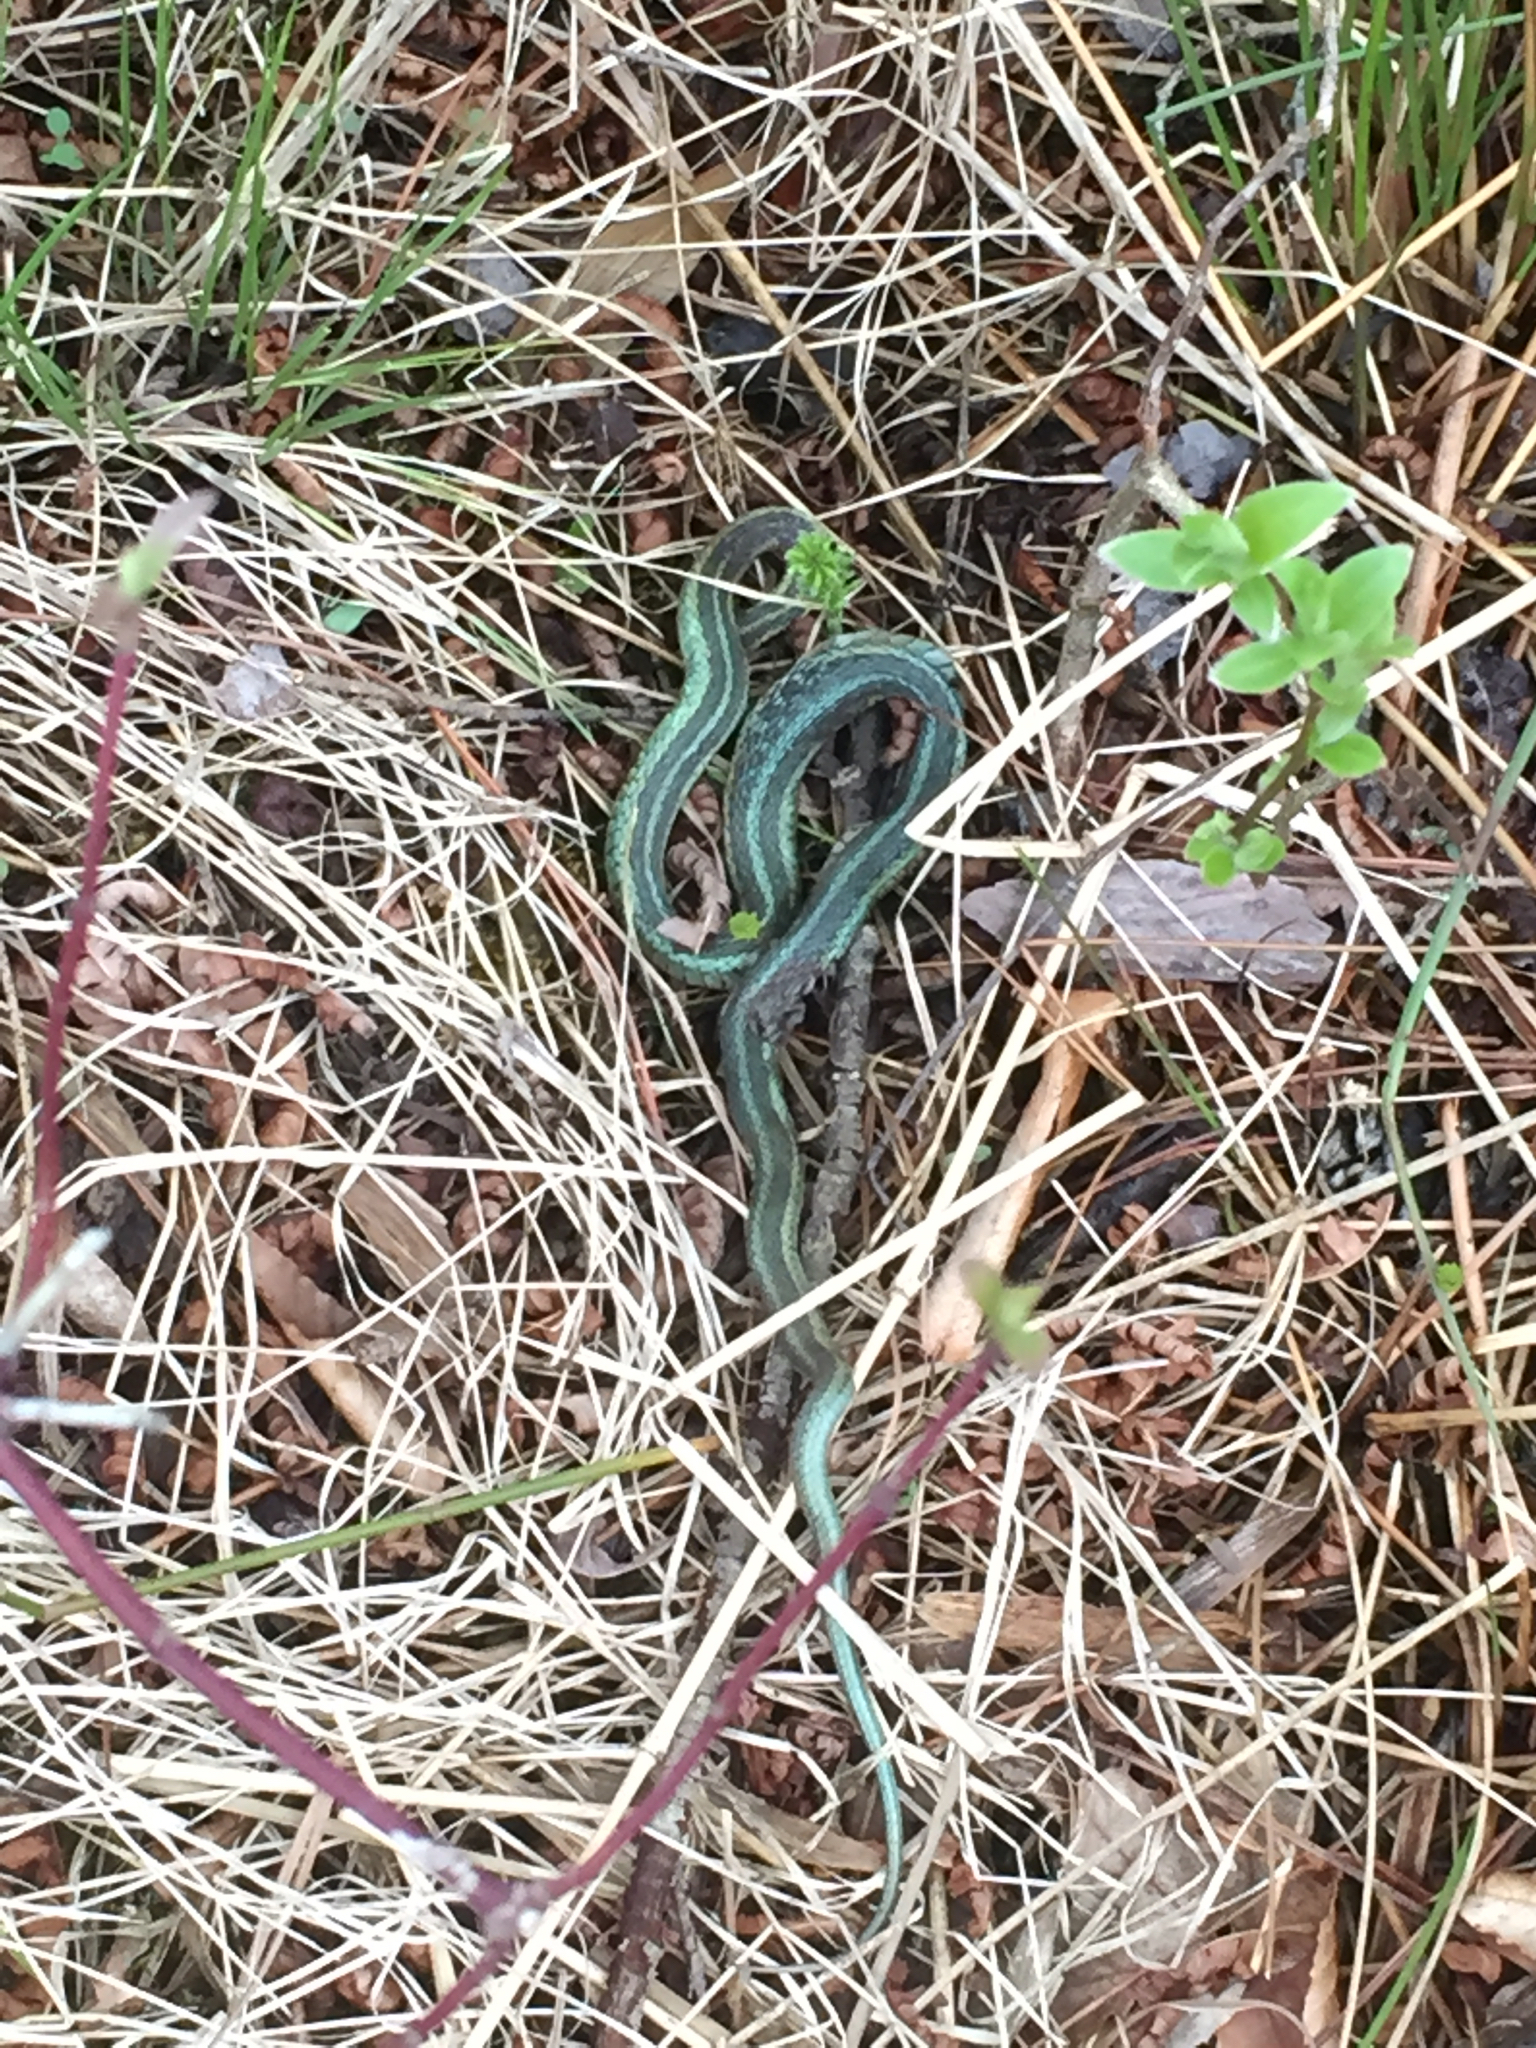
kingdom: Animalia
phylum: Chordata
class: Squamata
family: Colubridae
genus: Thamnophis
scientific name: Thamnophis sirtalis
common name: Common garter snake
